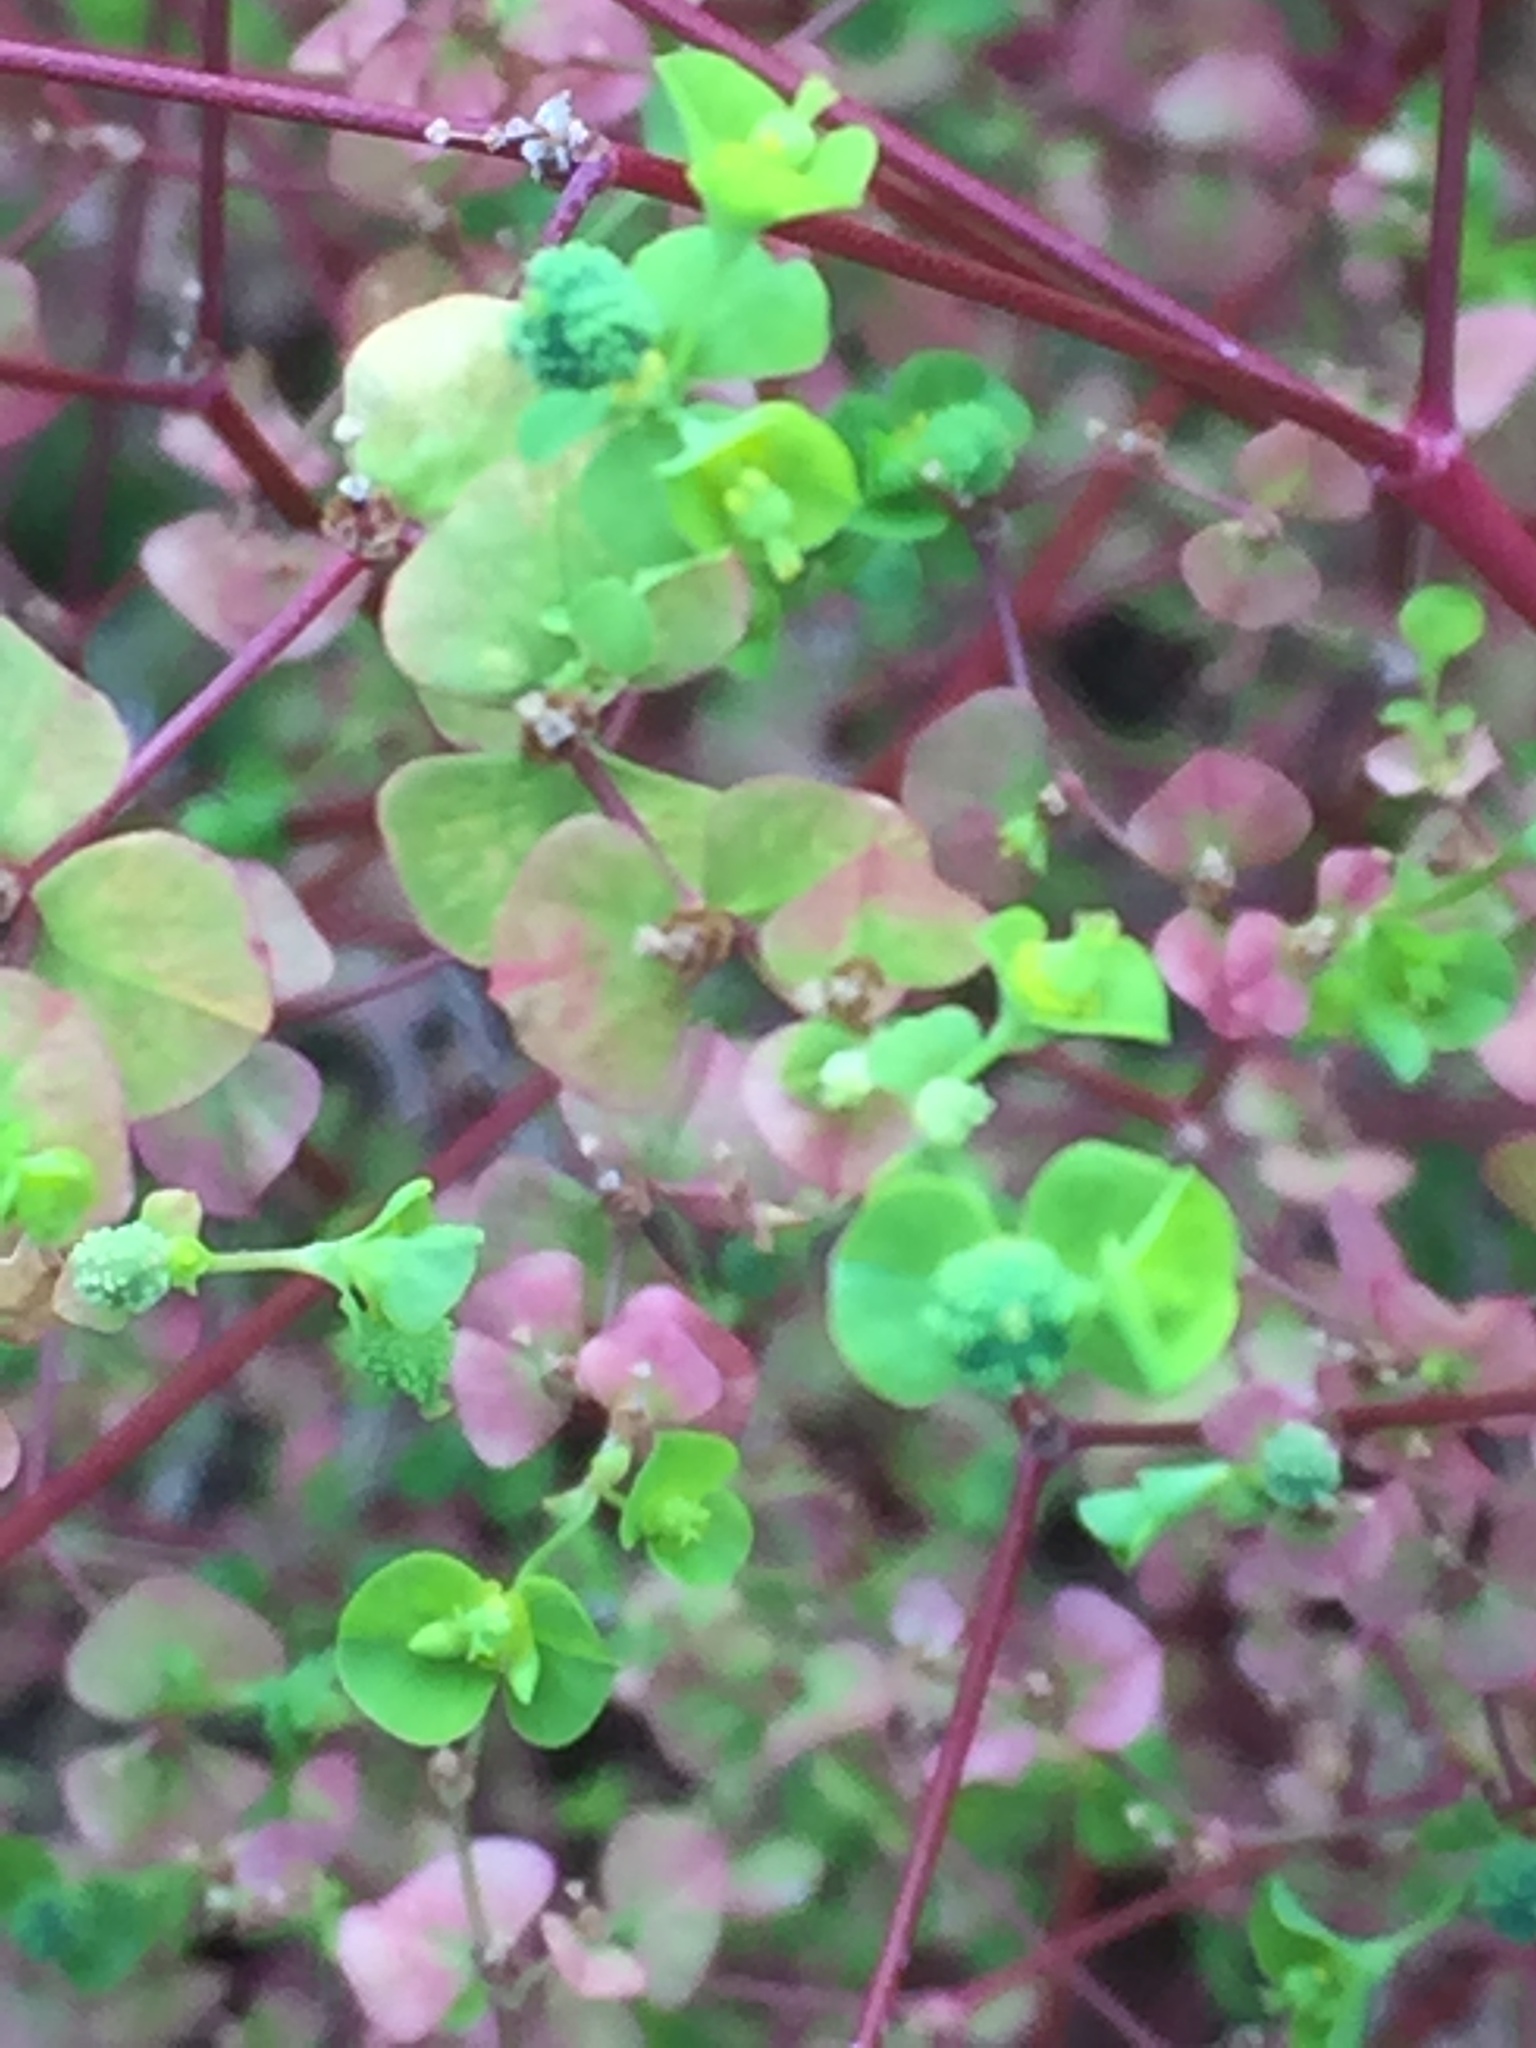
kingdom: Plantae
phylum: Tracheophyta
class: Magnoliopsida
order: Malpighiales
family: Euphorbiaceae
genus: Euphorbia
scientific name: Euphorbia stricta
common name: Upright spurge
